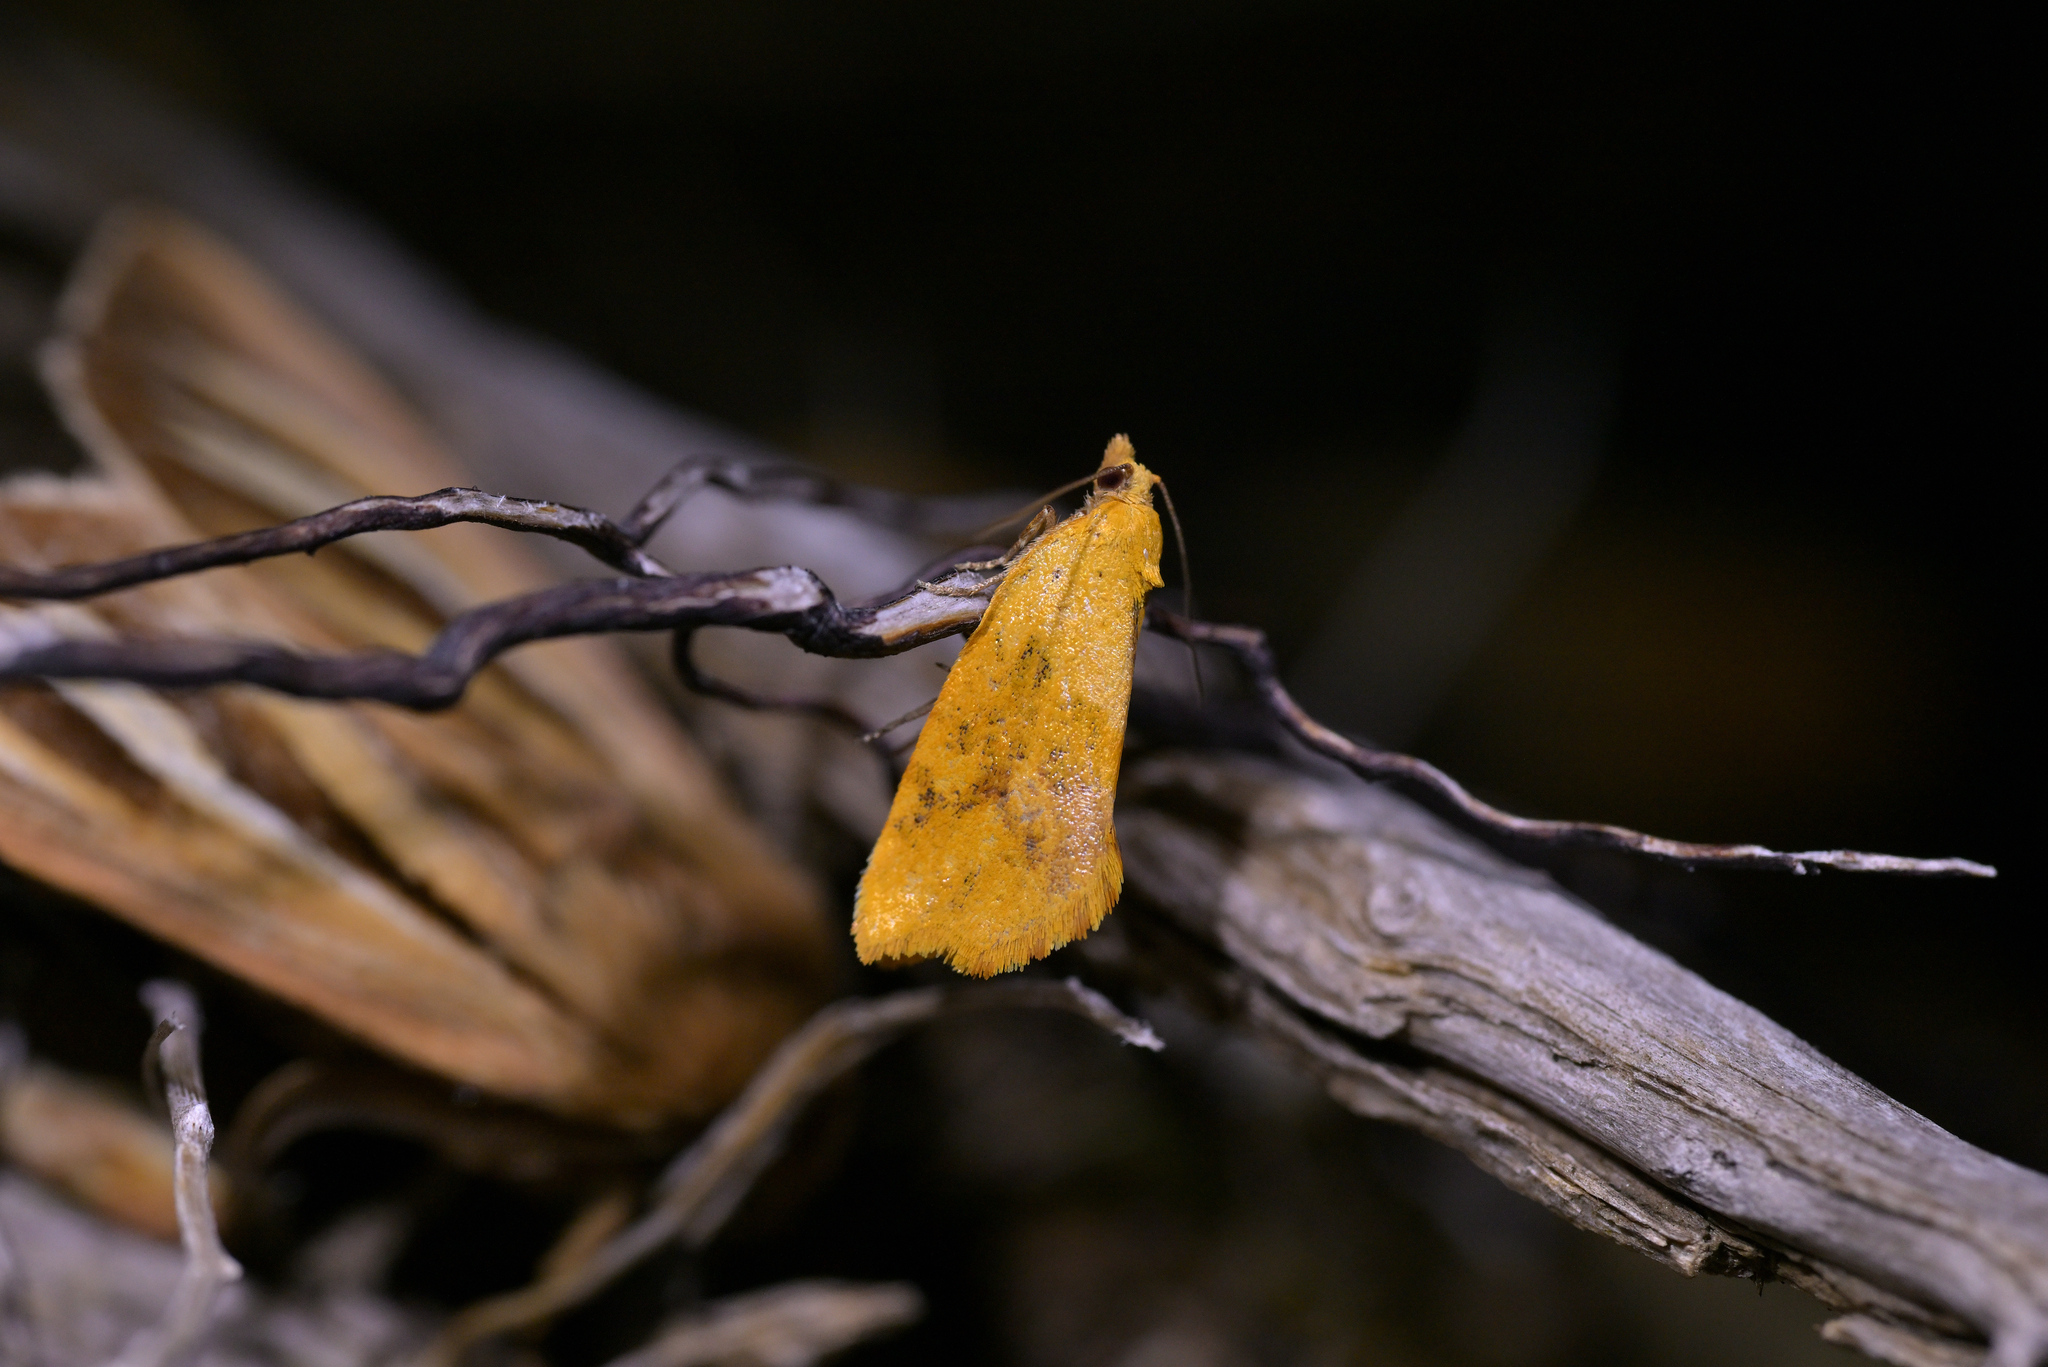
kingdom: Animalia
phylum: Arthropoda
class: Insecta
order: Lepidoptera
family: Tortricidae
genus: Pyrgotis
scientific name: Pyrgotis pyramidias
